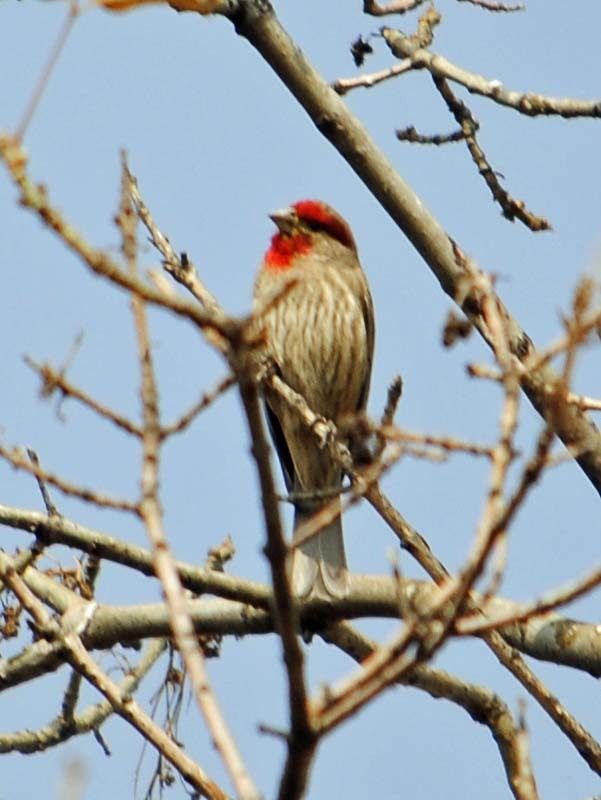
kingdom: Animalia
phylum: Chordata
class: Aves
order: Passeriformes
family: Fringillidae
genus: Haemorhous
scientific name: Haemorhous mexicanus
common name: House finch
